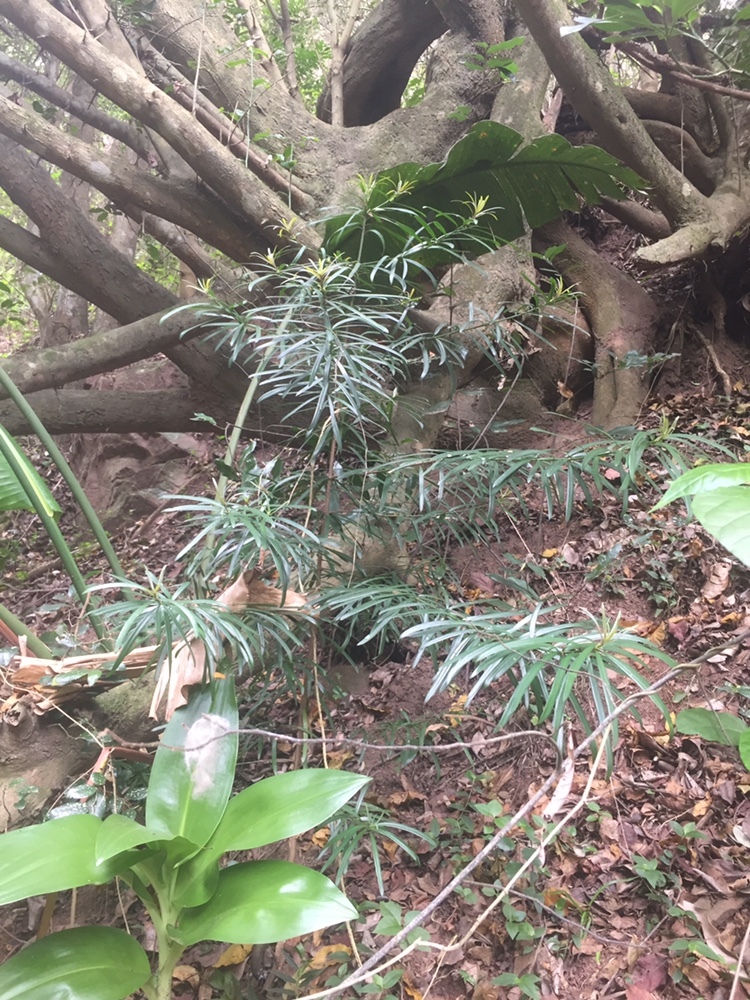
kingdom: Plantae
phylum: Tracheophyta
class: Pinopsida
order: Pinales
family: Podocarpaceae
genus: Afrocarpus
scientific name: Afrocarpus falcatus
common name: Bastard yellowwood
